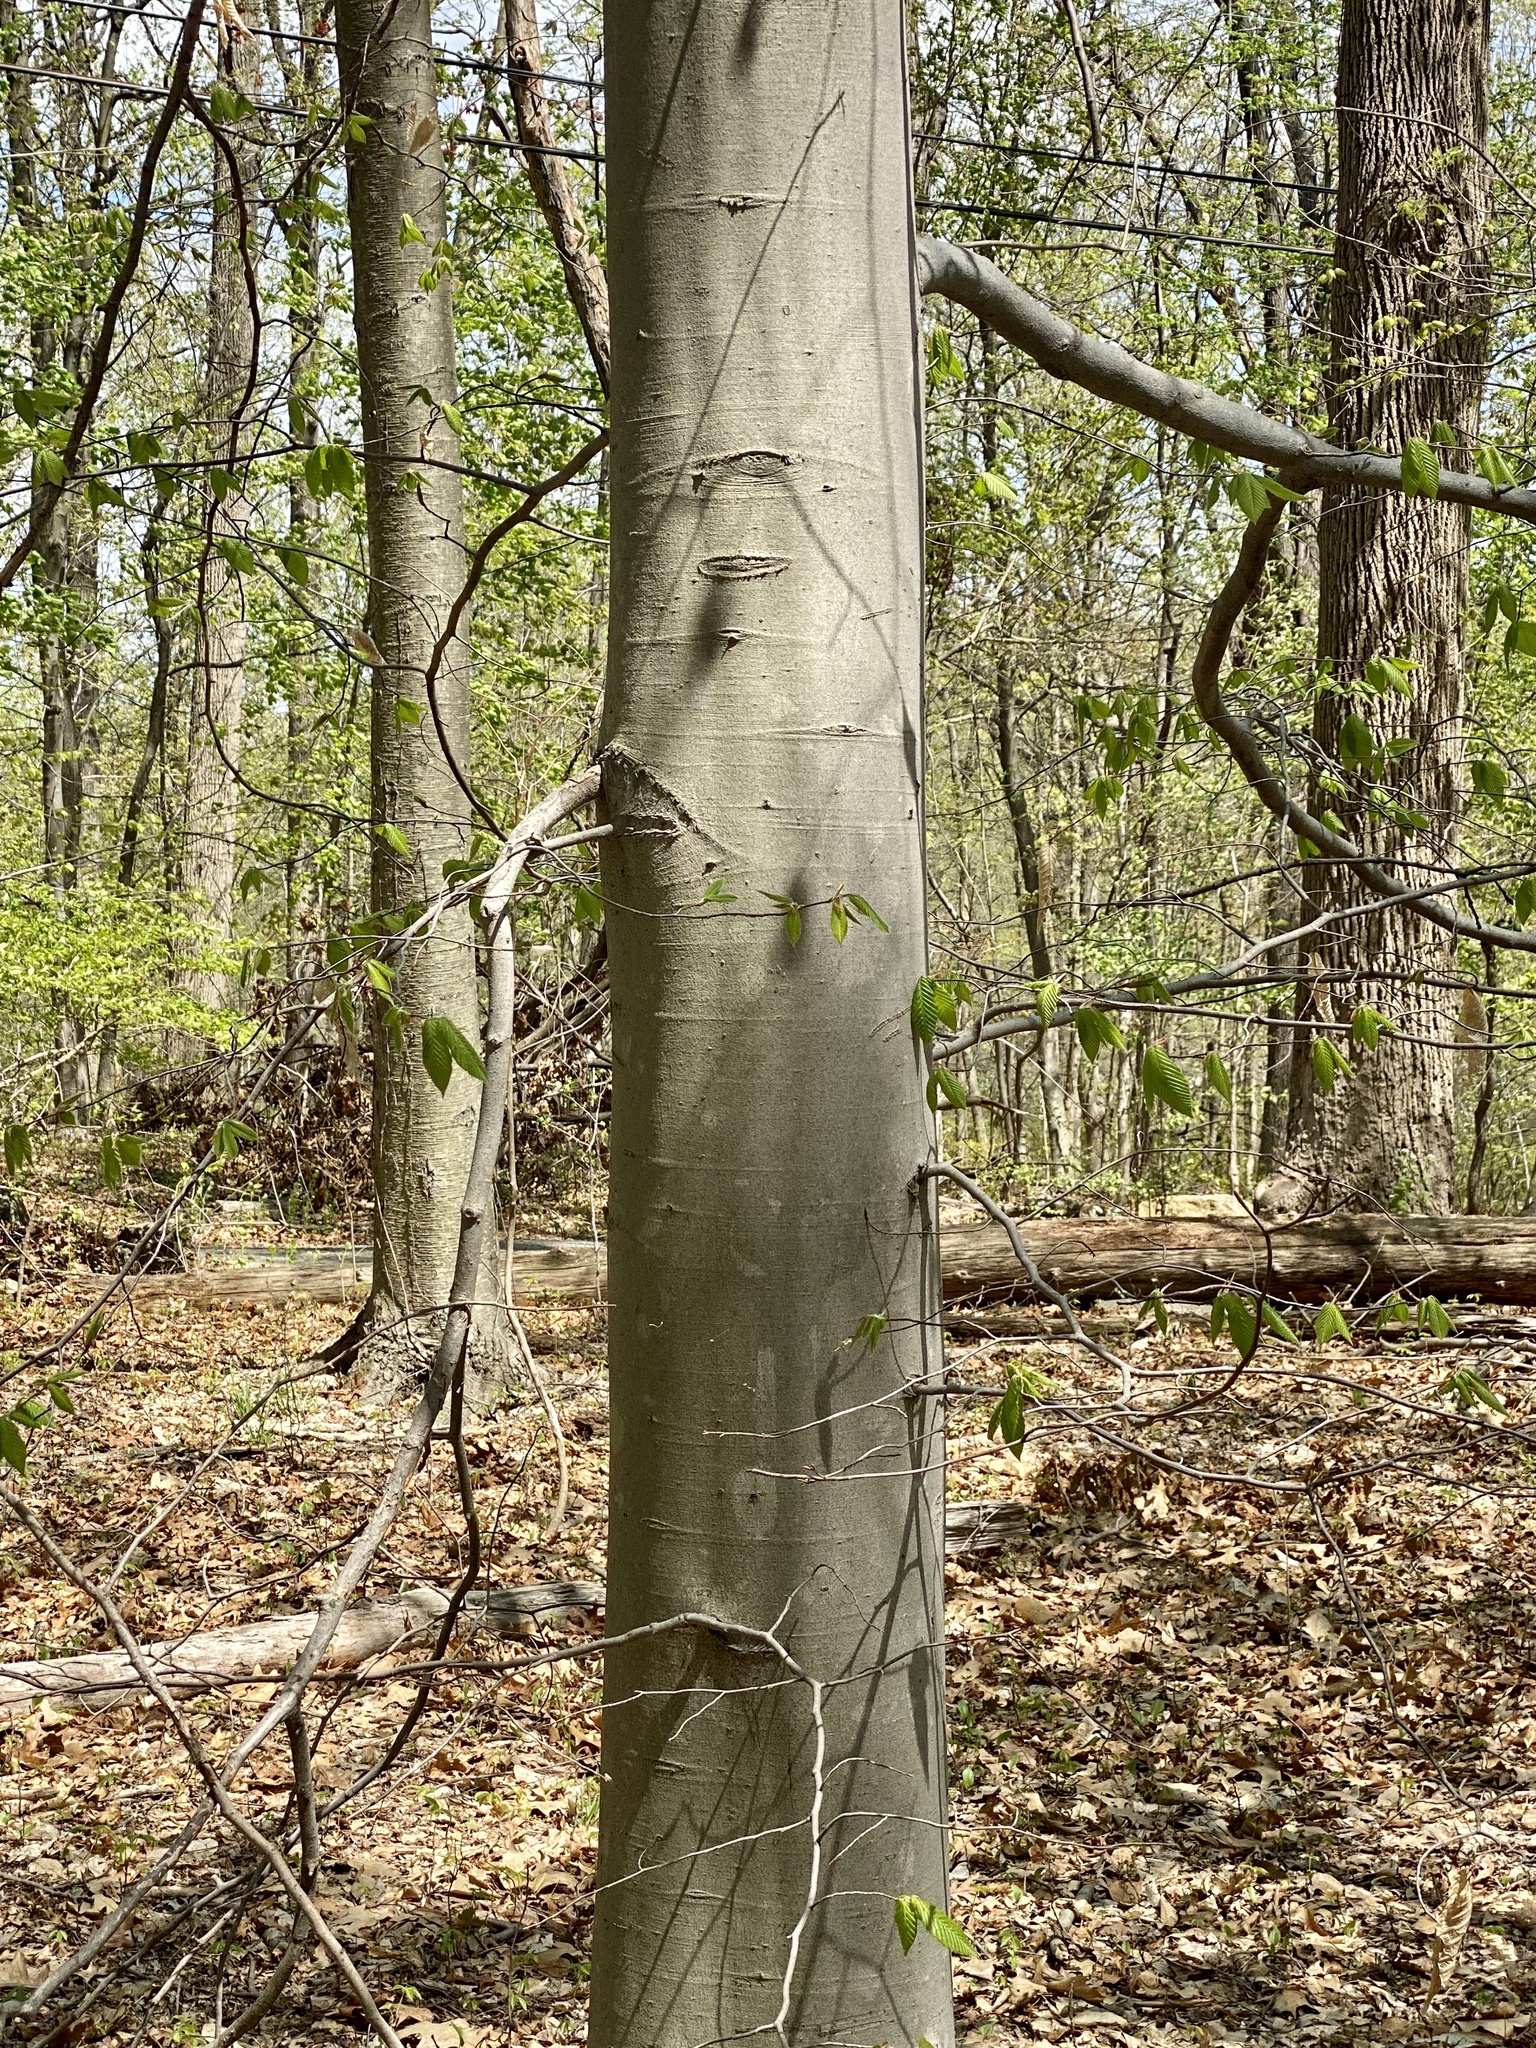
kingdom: Plantae
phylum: Tracheophyta
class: Magnoliopsida
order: Fagales
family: Fagaceae
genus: Fagus
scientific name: Fagus grandifolia
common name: American beech
